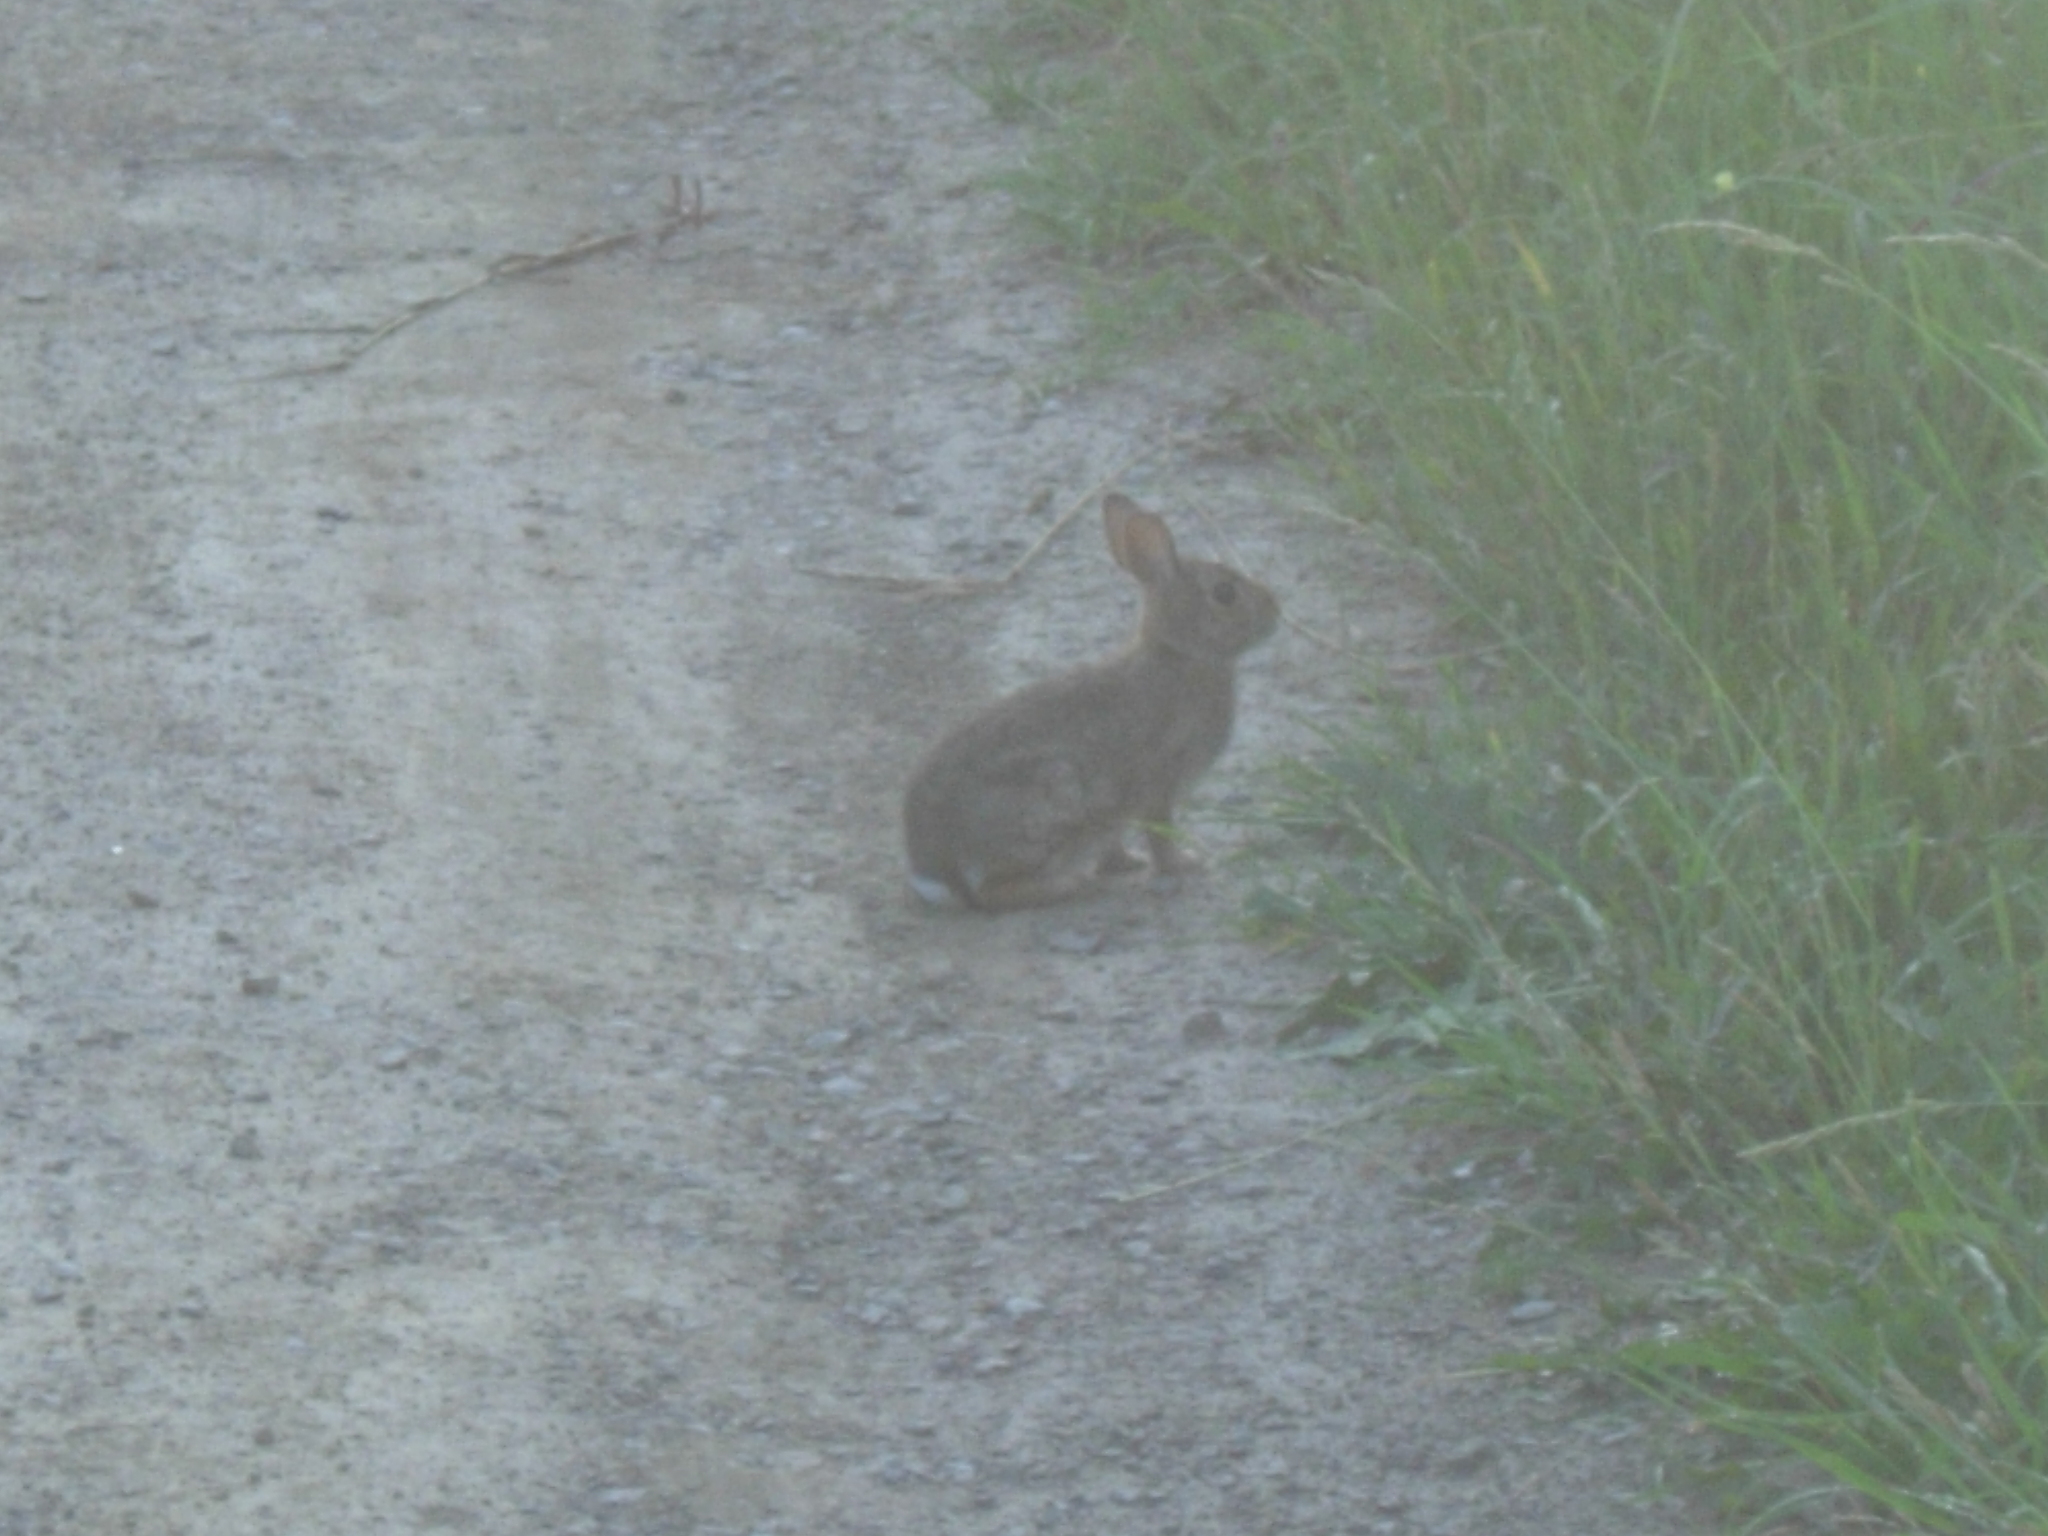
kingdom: Animalia
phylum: Chordata
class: Mammalia
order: Lagomorpha
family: Leporidae
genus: Sylvilagus
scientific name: Sylvilagus floridanus
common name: Eastern cottontail
